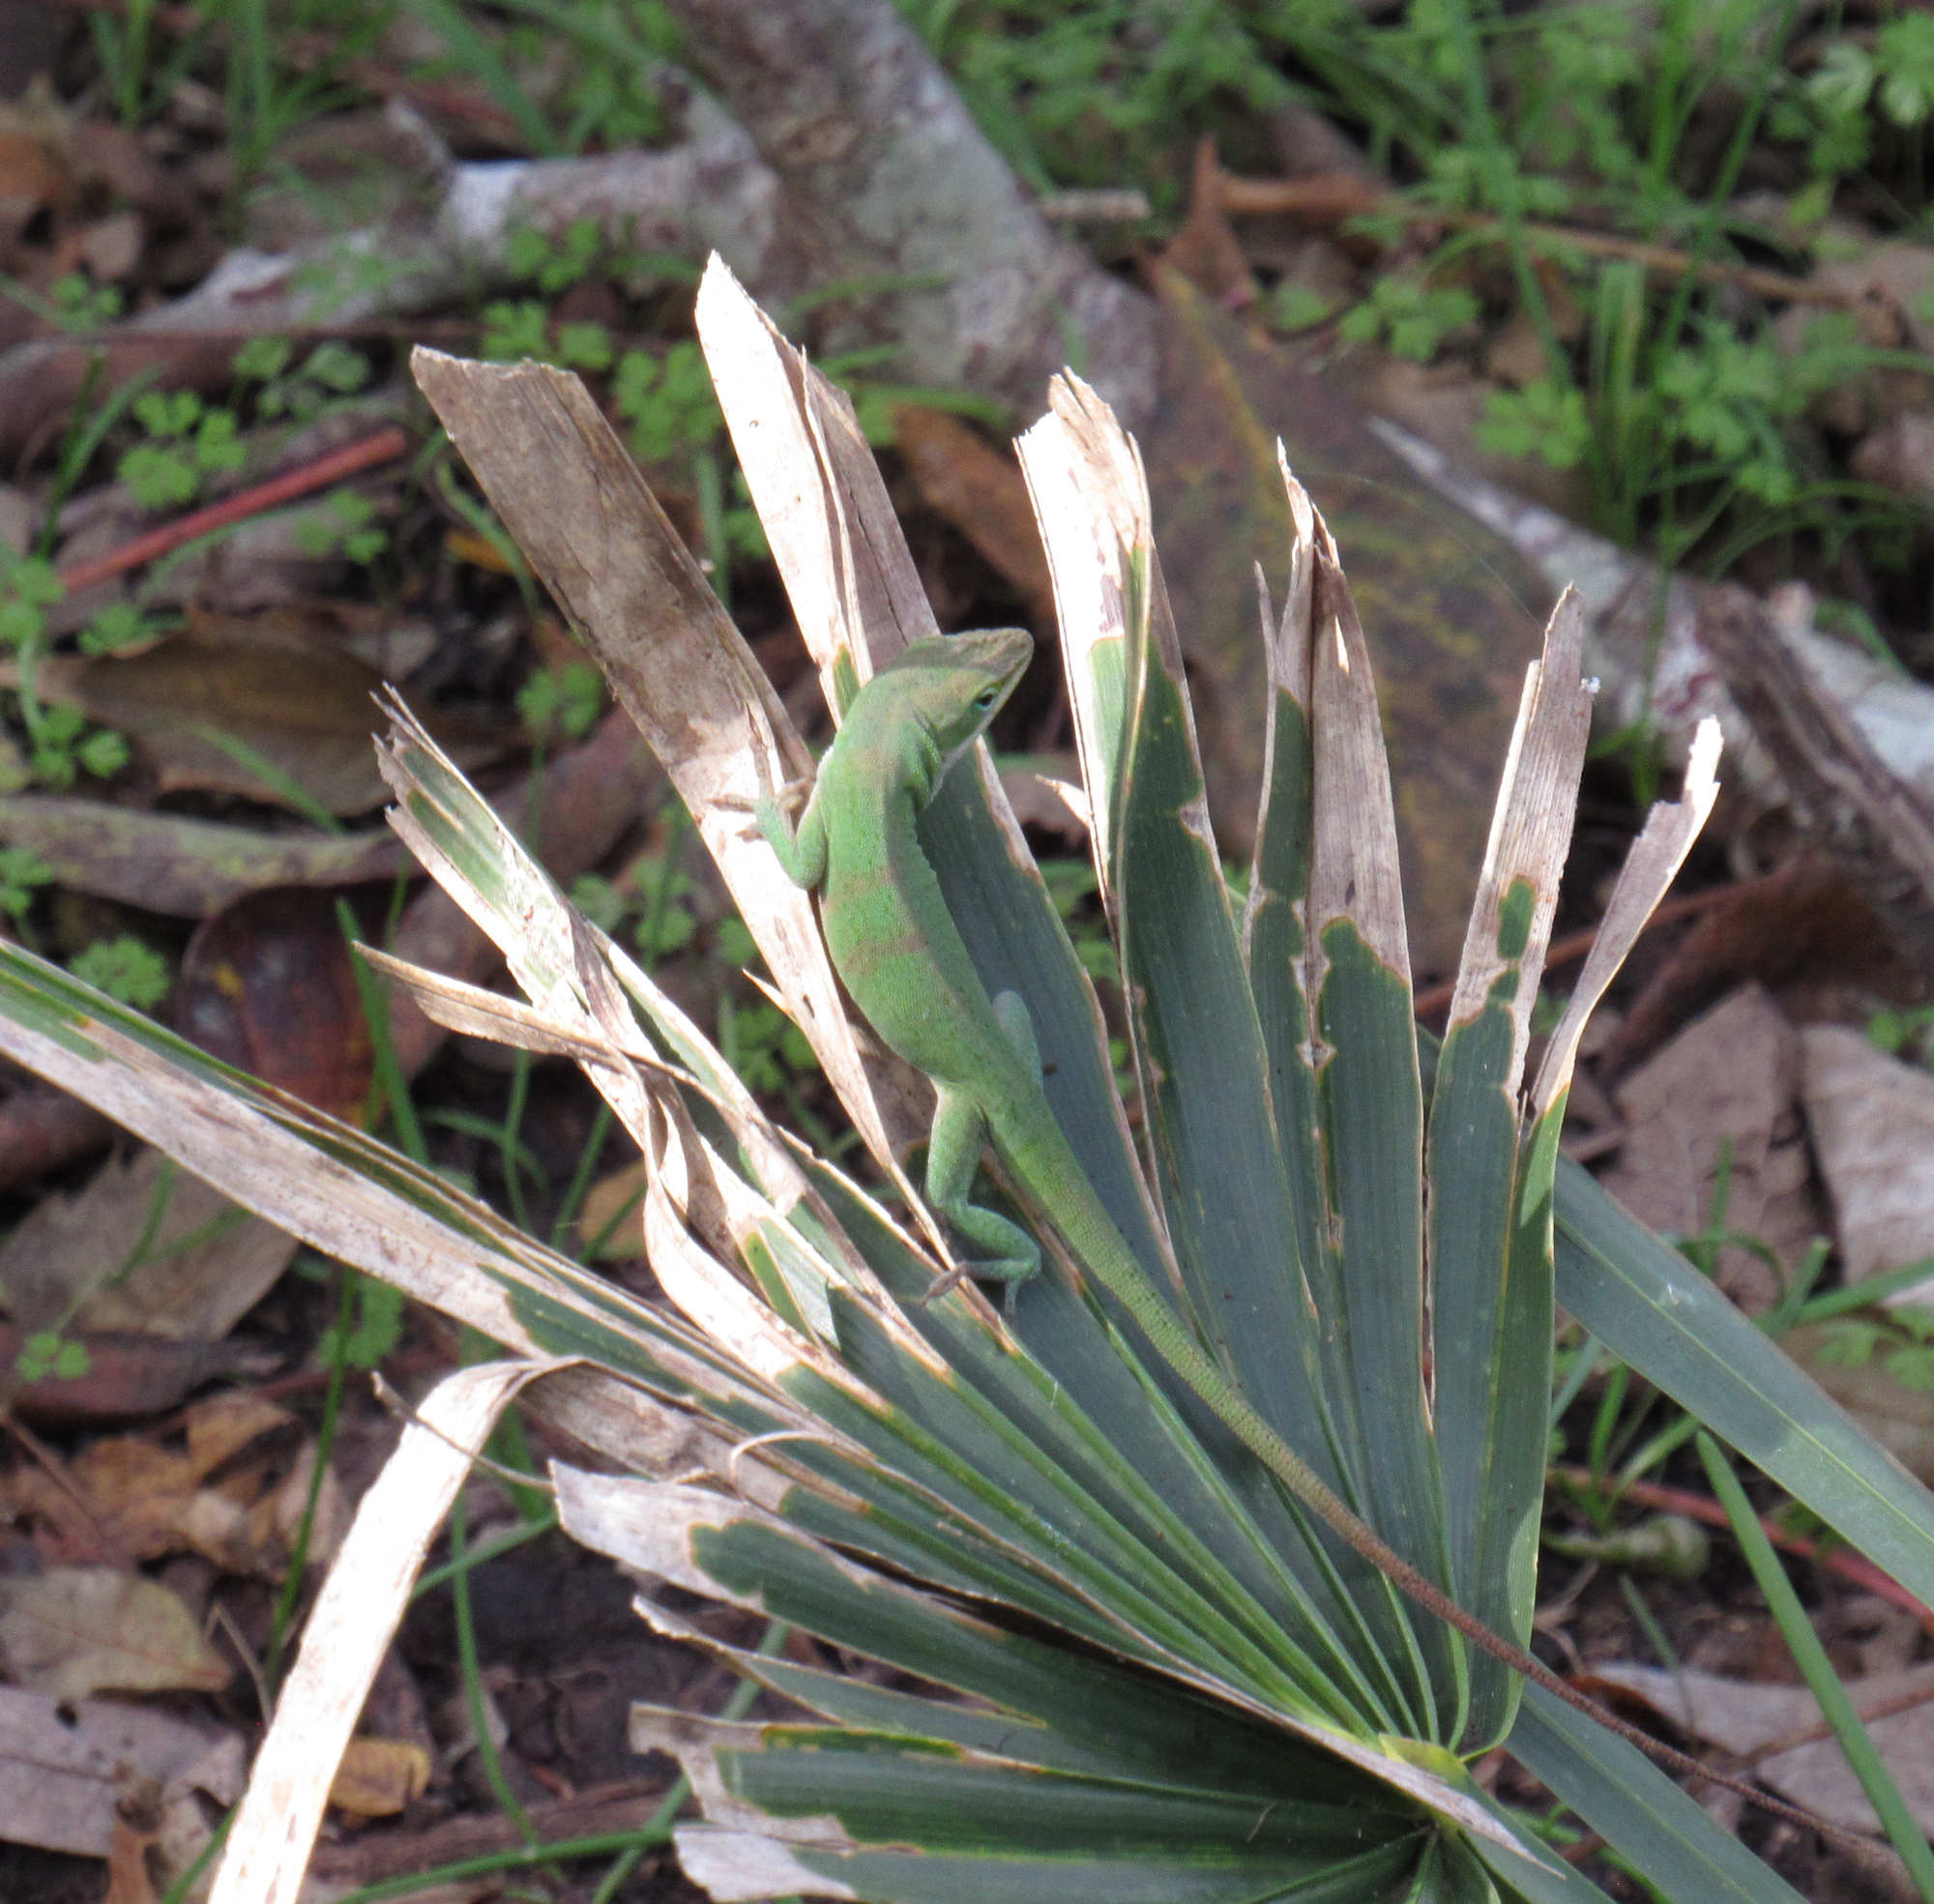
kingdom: Animalia
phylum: Chordata
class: Squamata
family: Dactyloidae
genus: Anolis
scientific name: Anolis carolinensis
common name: Green anole
